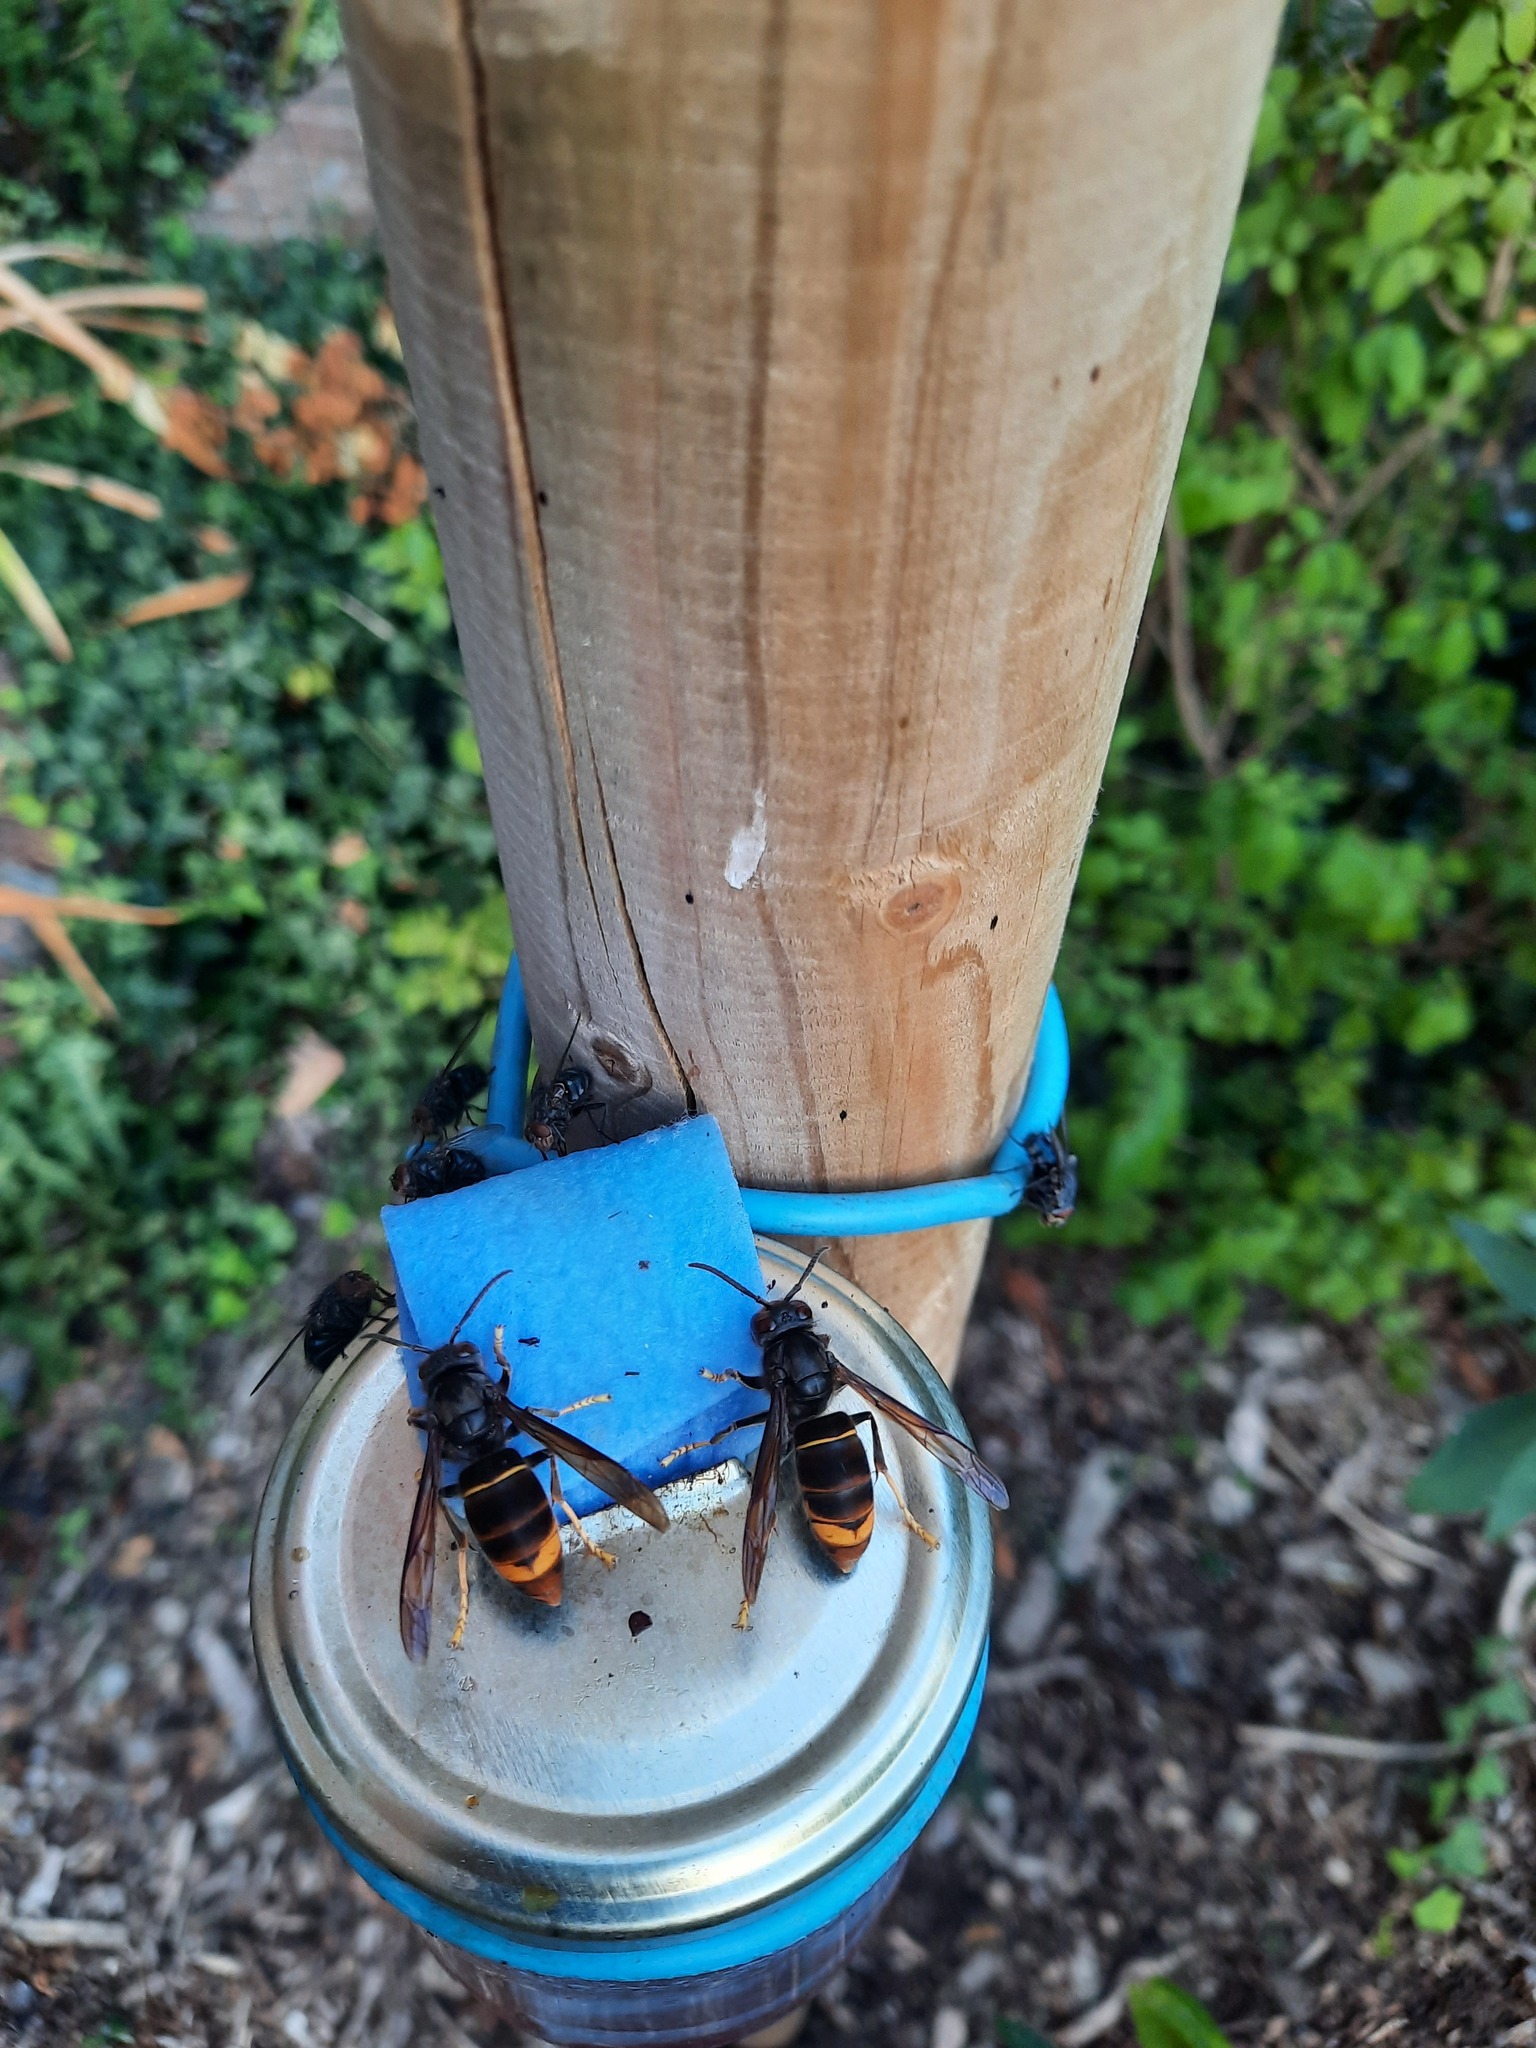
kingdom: Animalia
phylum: Arthropoda
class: Insecta
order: Hymenoptera
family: Vespidae
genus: Vespa
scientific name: Vespa velutina
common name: Asian hornet
